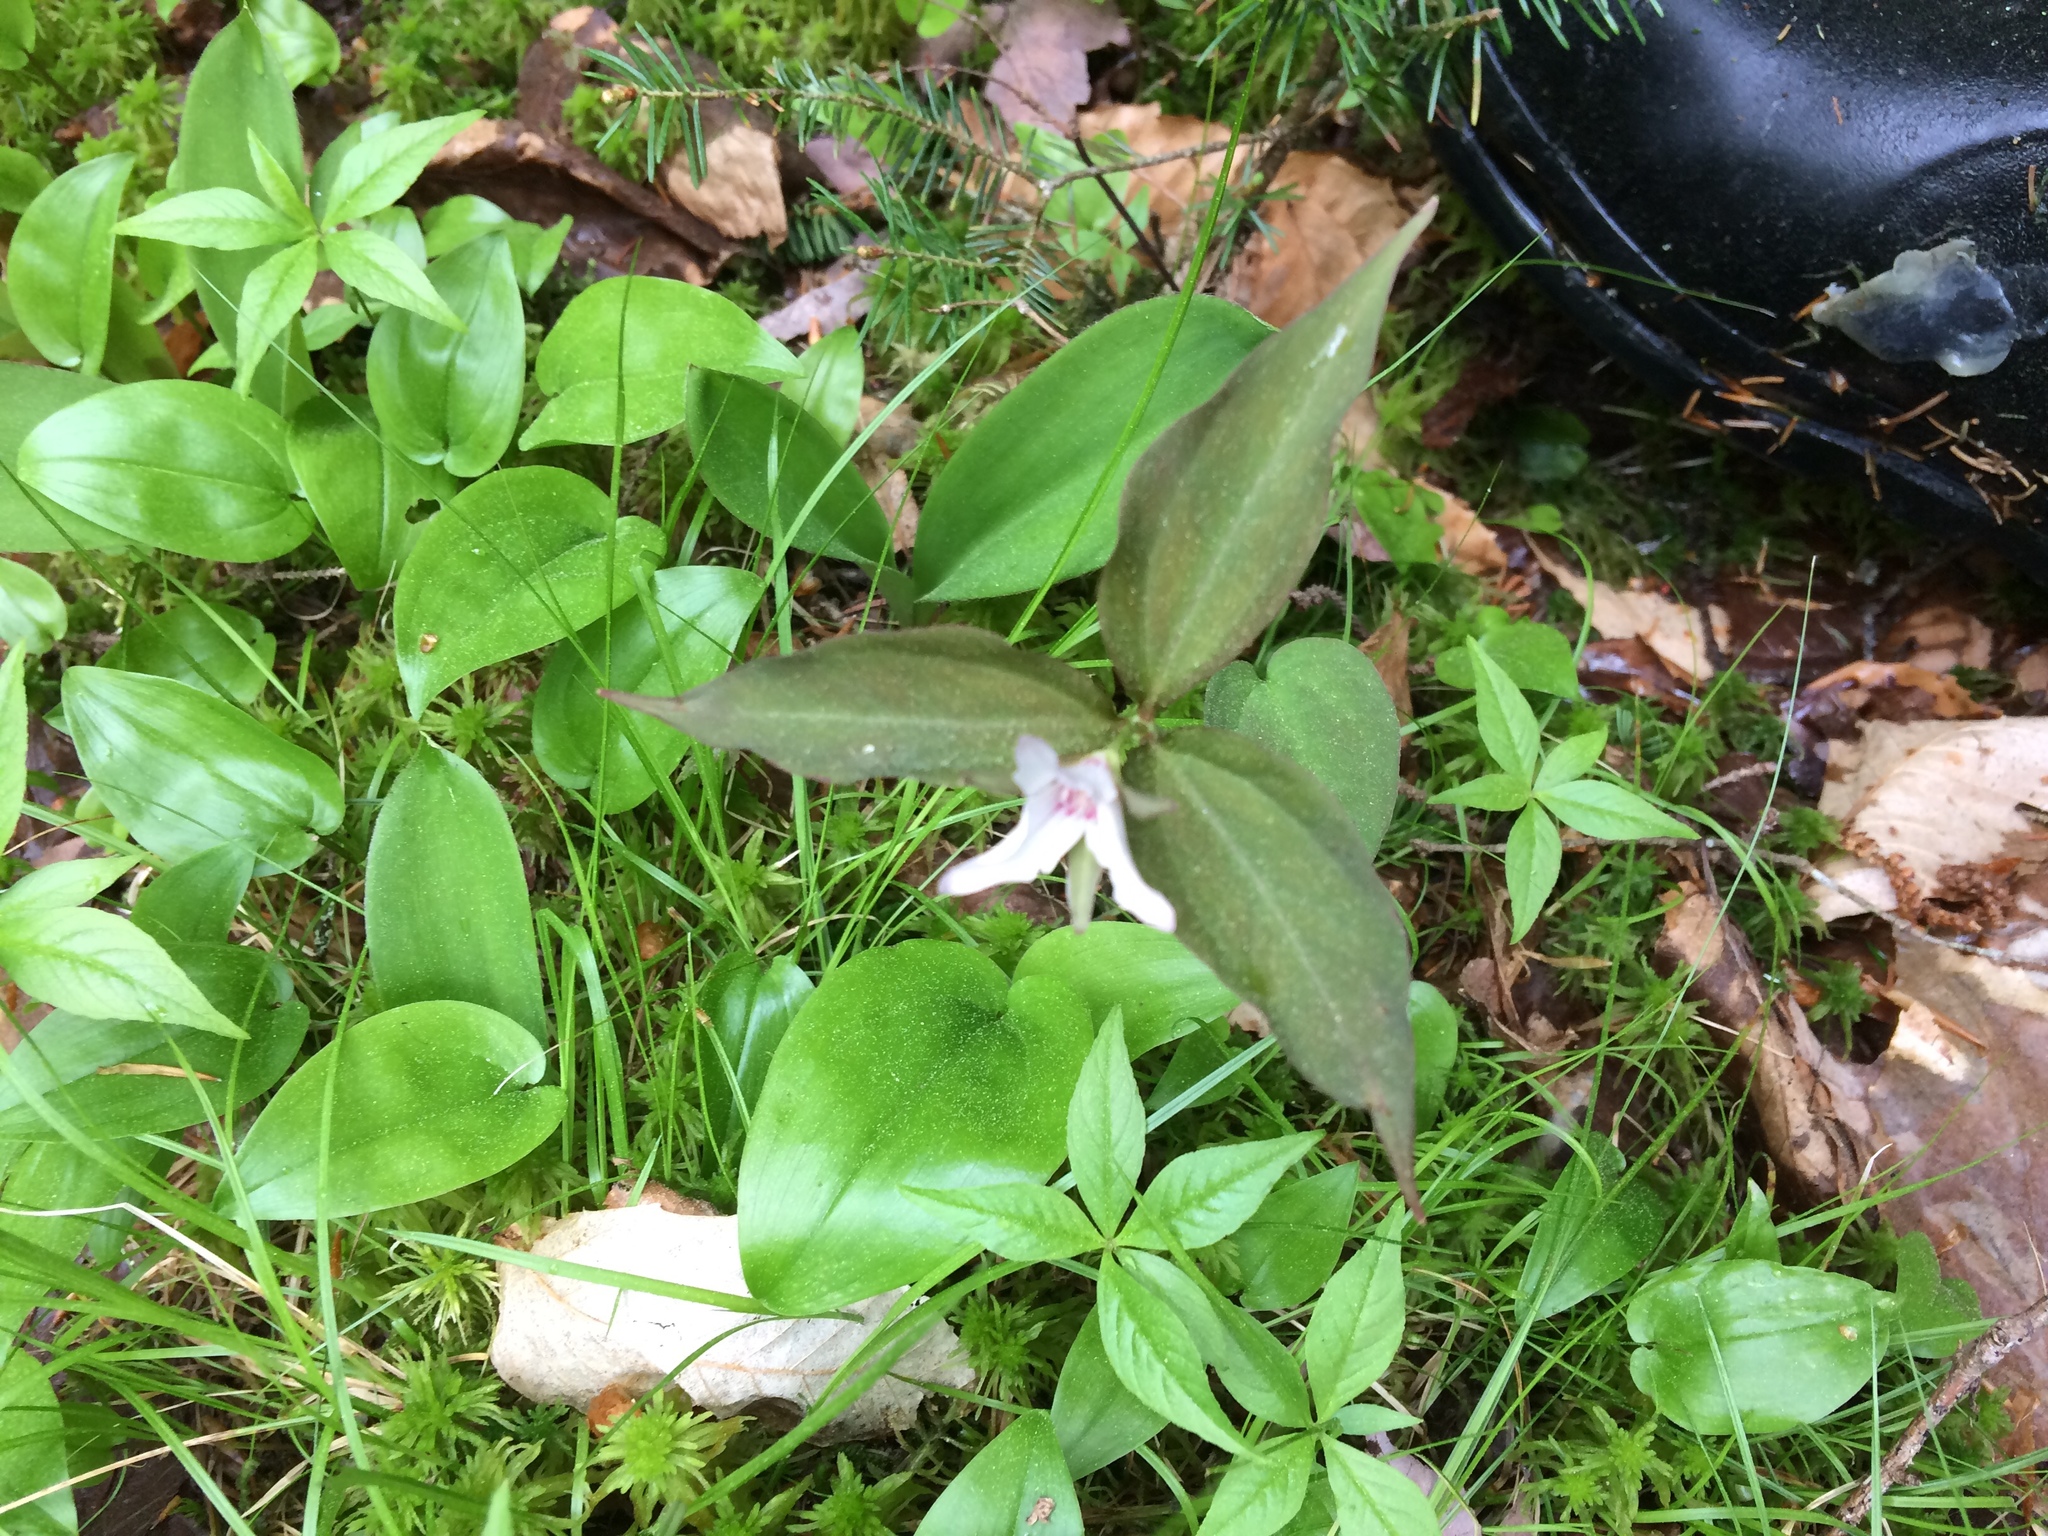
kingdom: Plantae
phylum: Tracheophyta
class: Liliopsida
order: Liliales
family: Melanthiaceae
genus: Trillium
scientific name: Trillium undulatum
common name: Paint trillium
